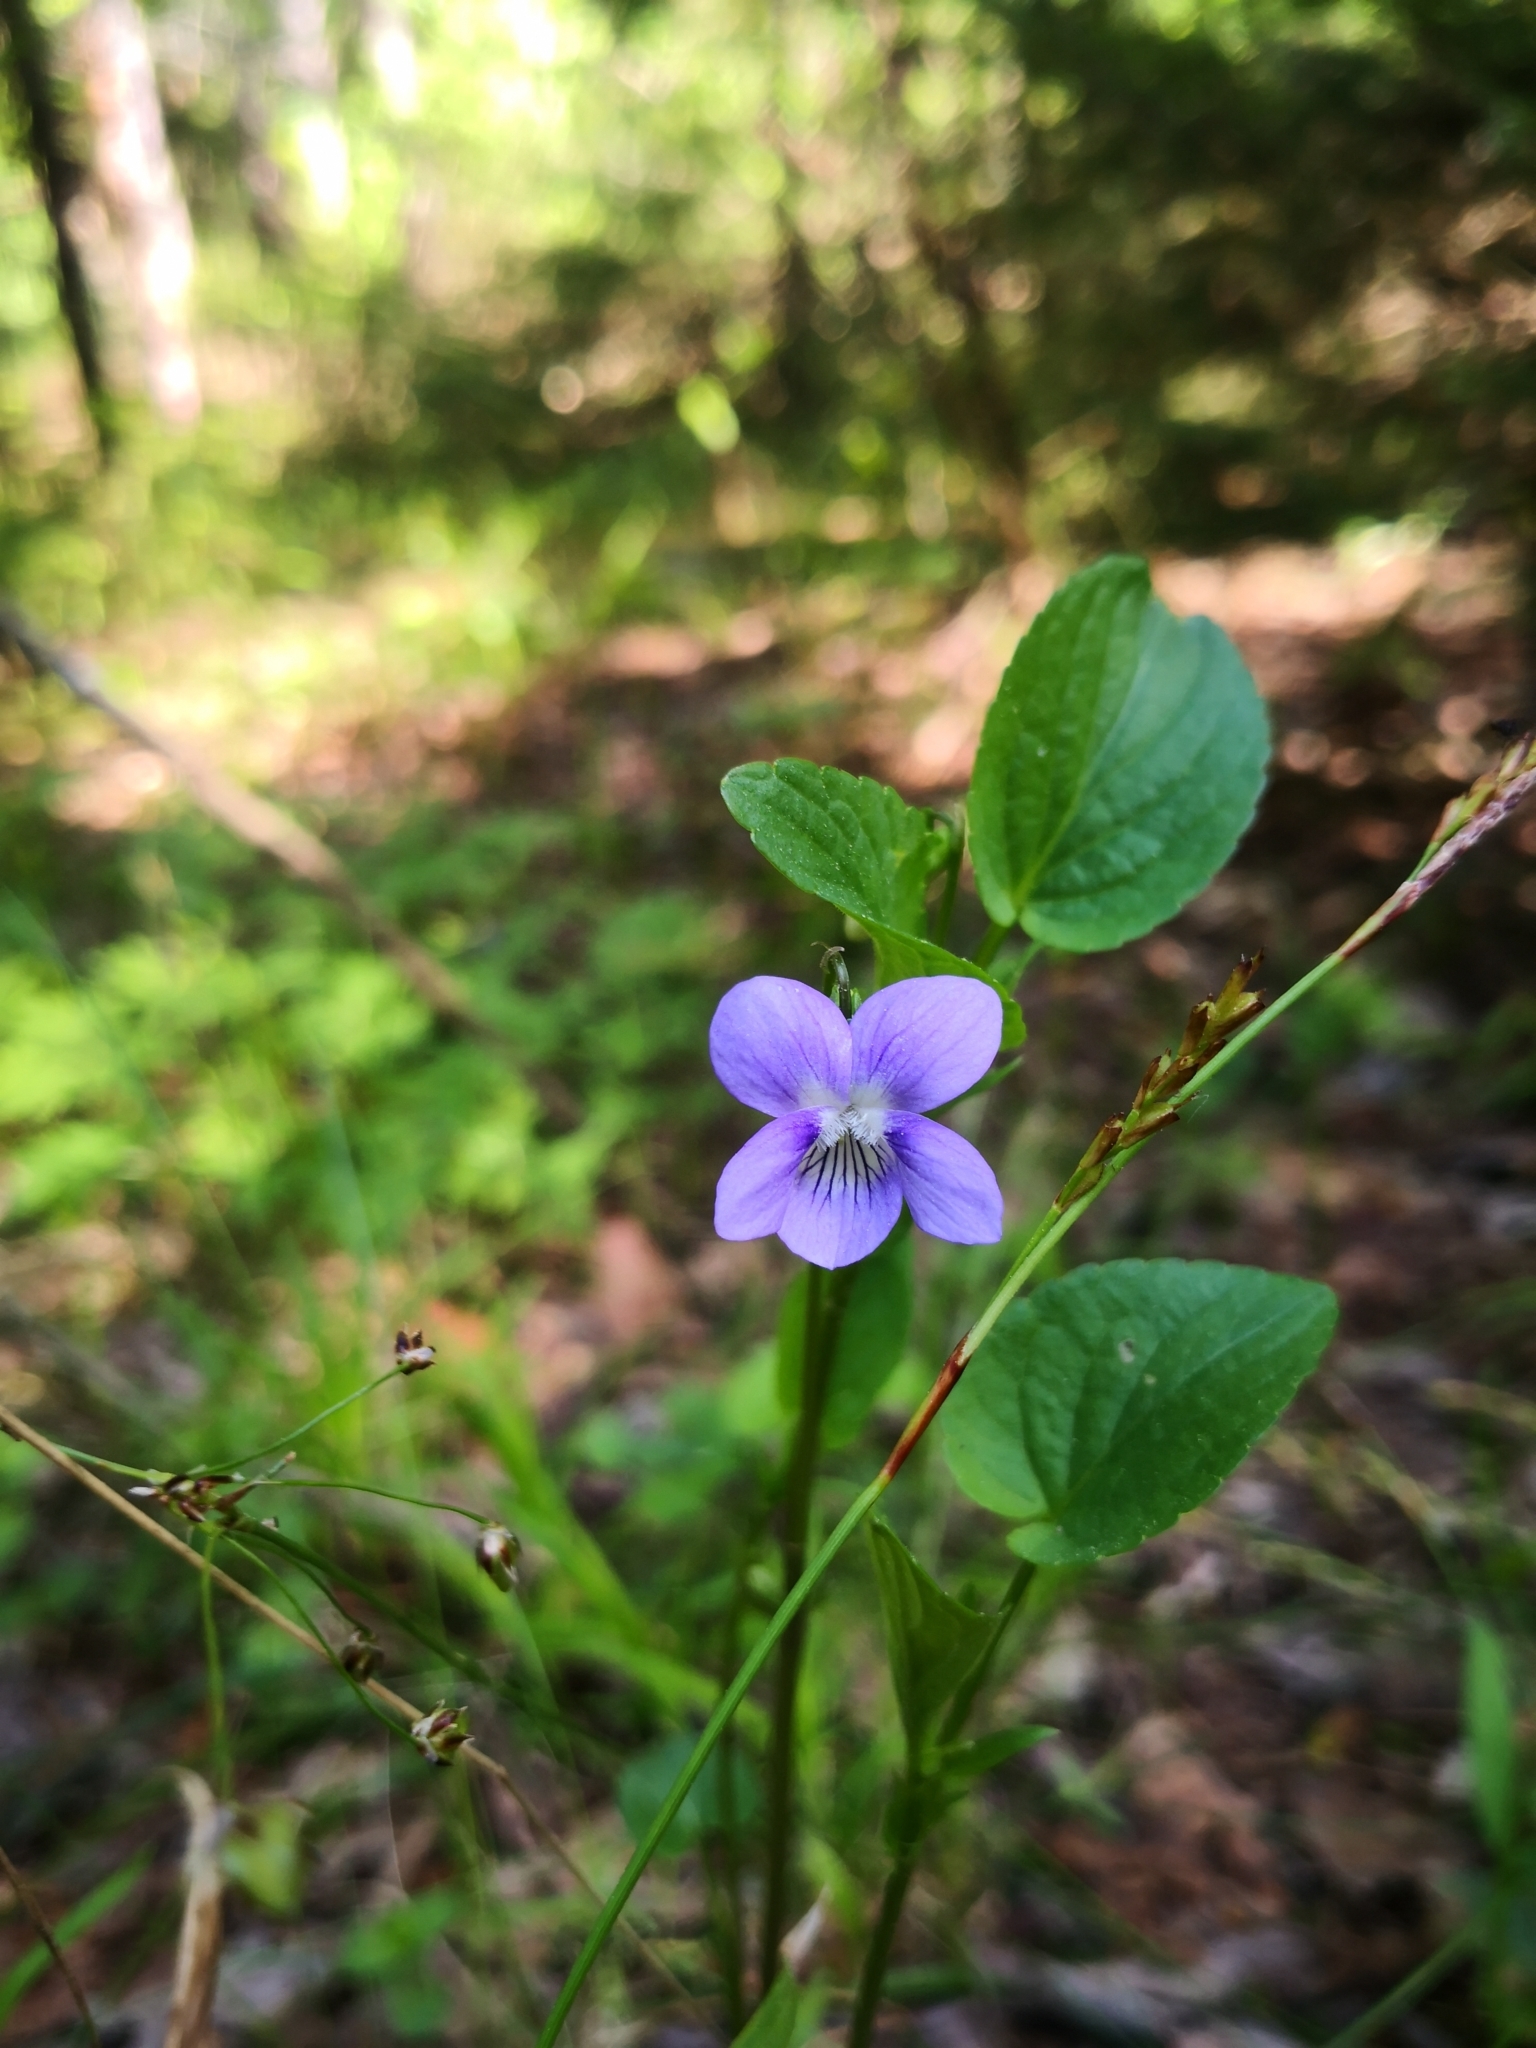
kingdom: Plantae
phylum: Tracheophyta
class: Magnoliopsida
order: Malpighiales
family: Violaceae
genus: Viola
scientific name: Viola canina
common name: Heath dog-violet
